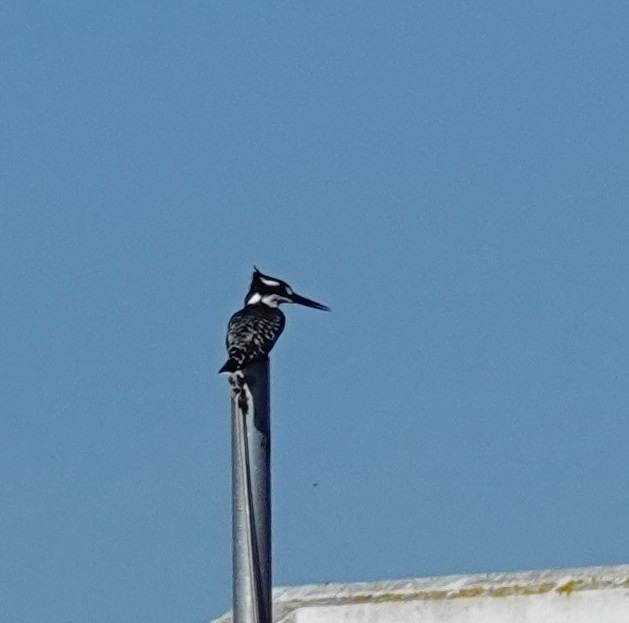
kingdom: Animalia
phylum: Chordata
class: Aves
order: Coraciiformes
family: Alcedinidae
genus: Ceryle
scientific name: Ceryle rudis
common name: Pied kingfisher
